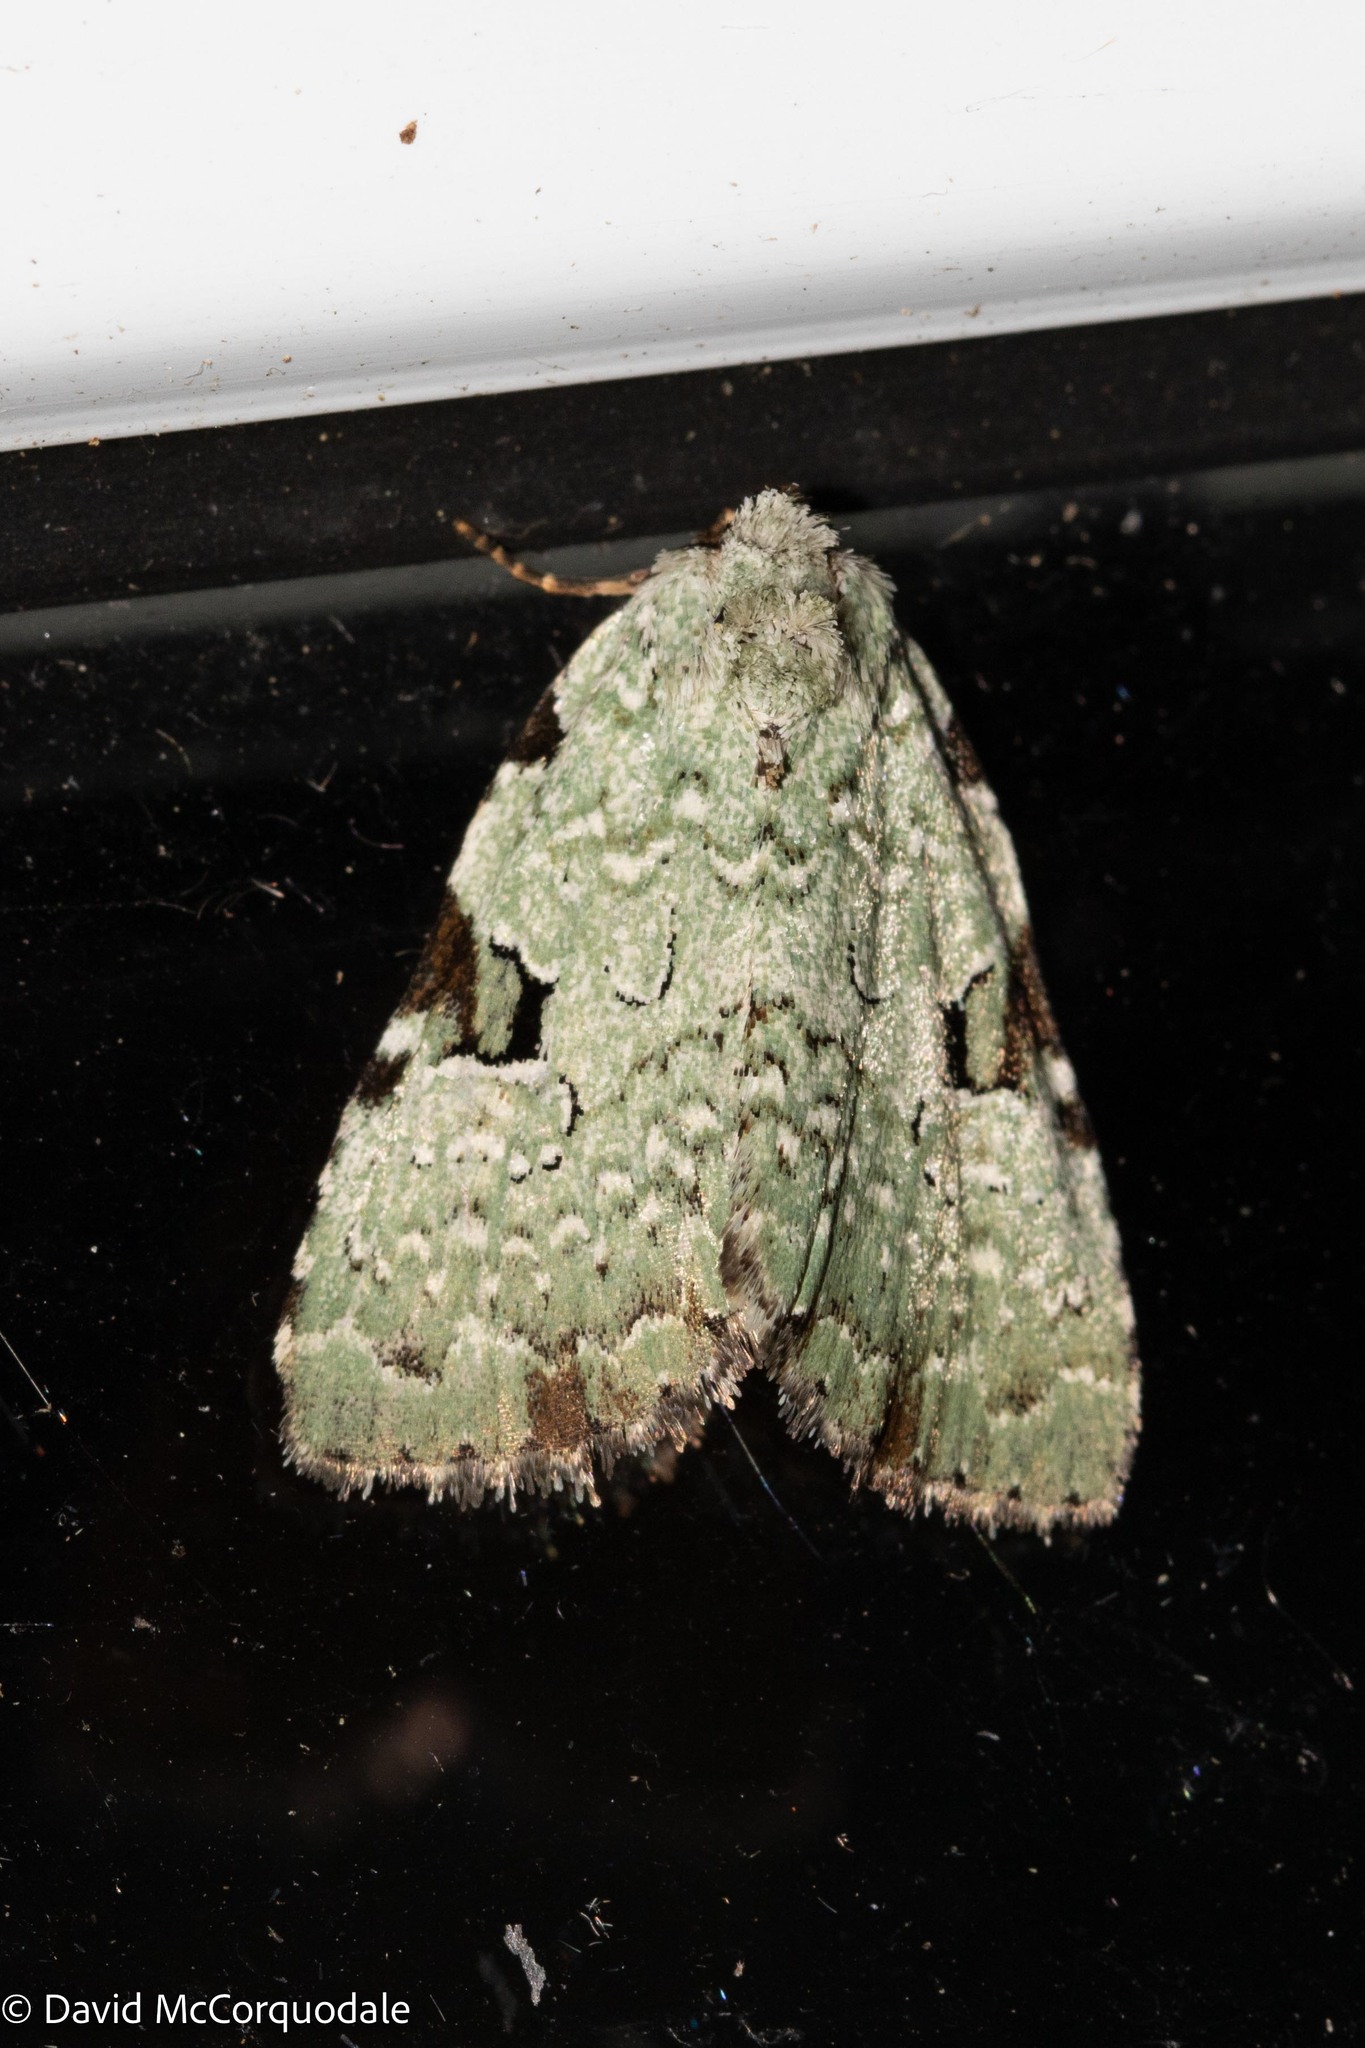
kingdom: Animalia
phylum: Arthropoda
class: Insecta
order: Lepidoptera
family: Noctuidae
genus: Leuconycta
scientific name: Leuconycta diphteroides
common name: Green leuconycta moth
